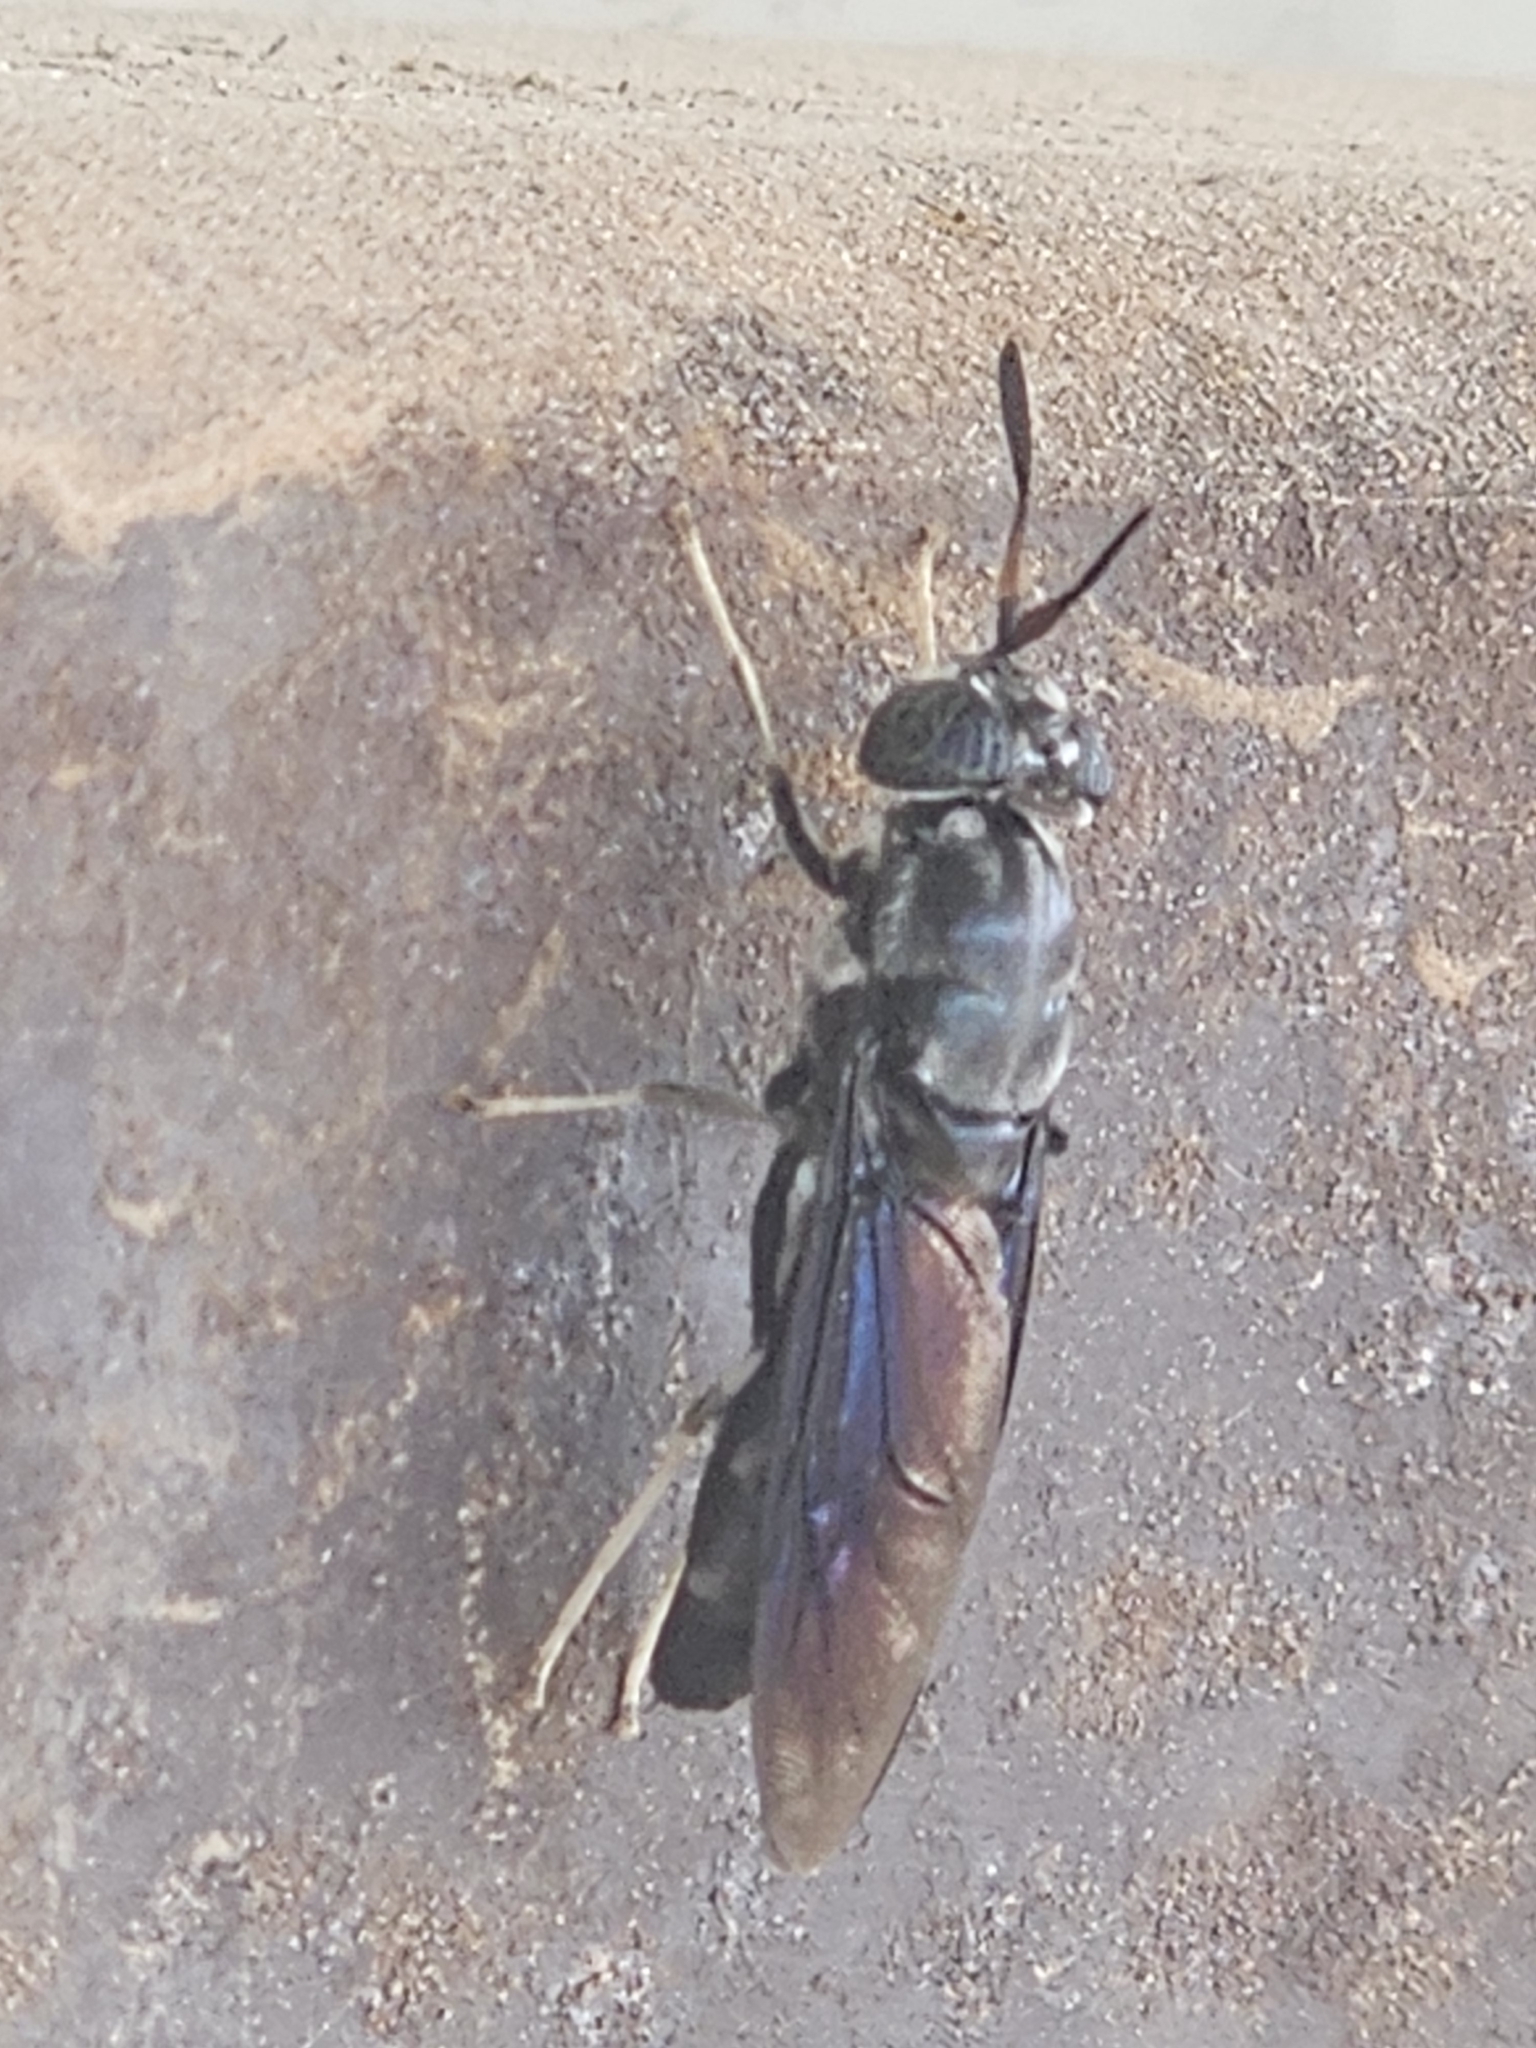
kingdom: Animalia
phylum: Arthropoda
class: Insecta
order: Diptera
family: Stratiomyidae
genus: Hermetia
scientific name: Hermetia illucens
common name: Black soldier fly
